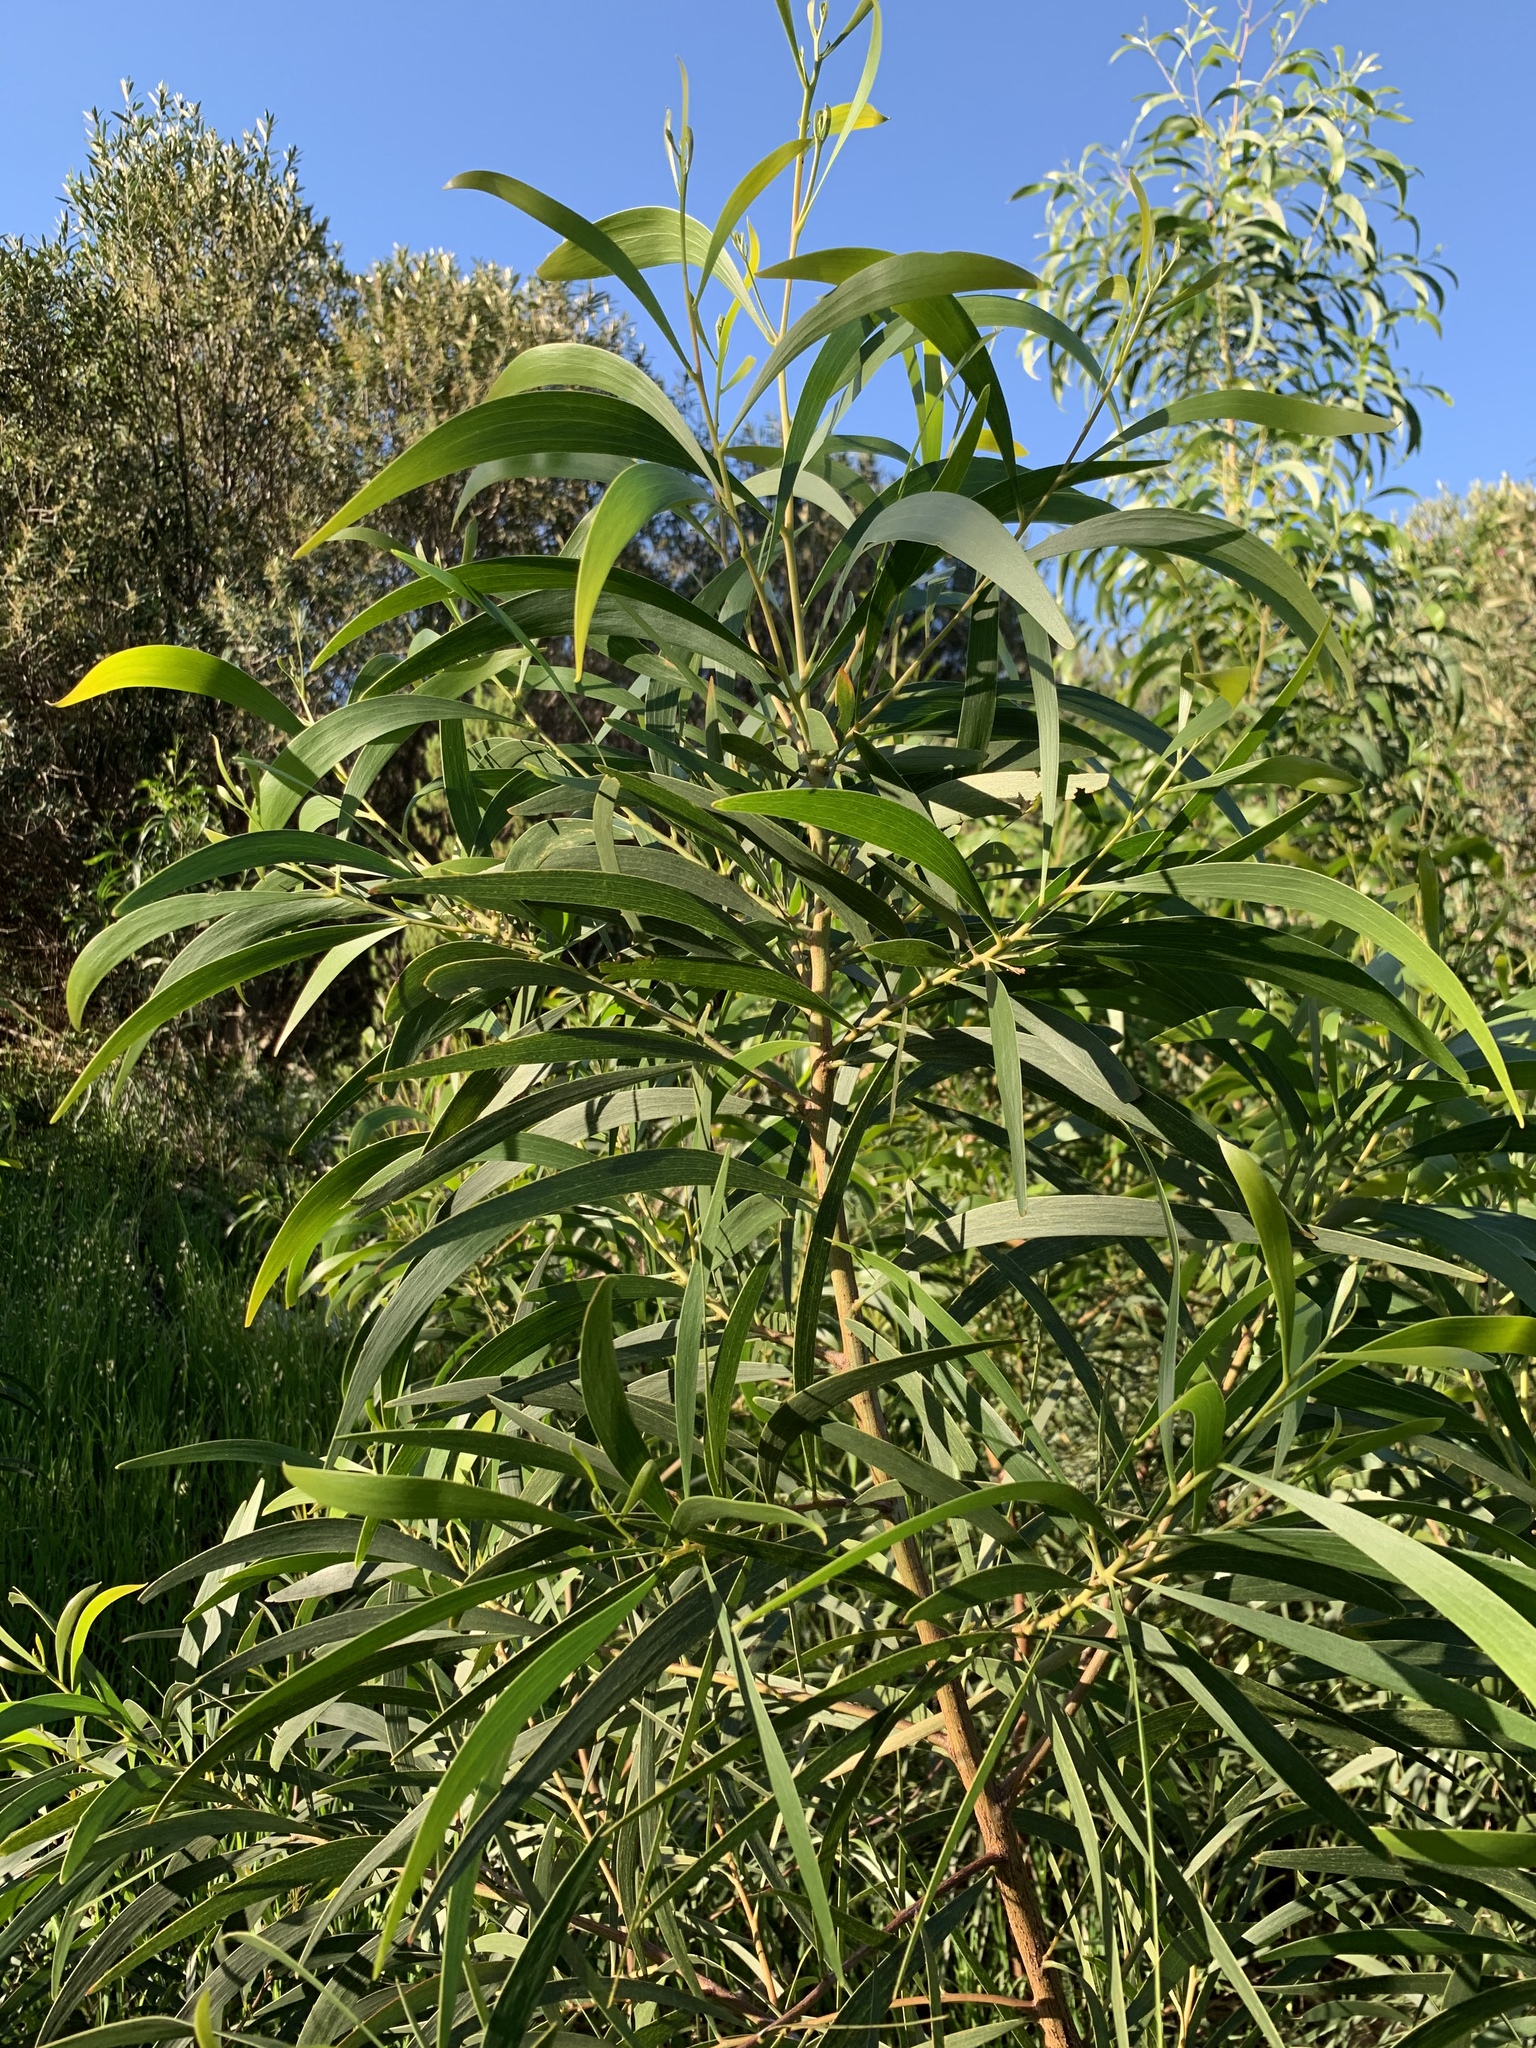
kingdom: Plantae
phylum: Tracheophyta
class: Magnoliopsida
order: Fabales
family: Fabaceae
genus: Acacia
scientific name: Acacia implexa
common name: Black wattle
